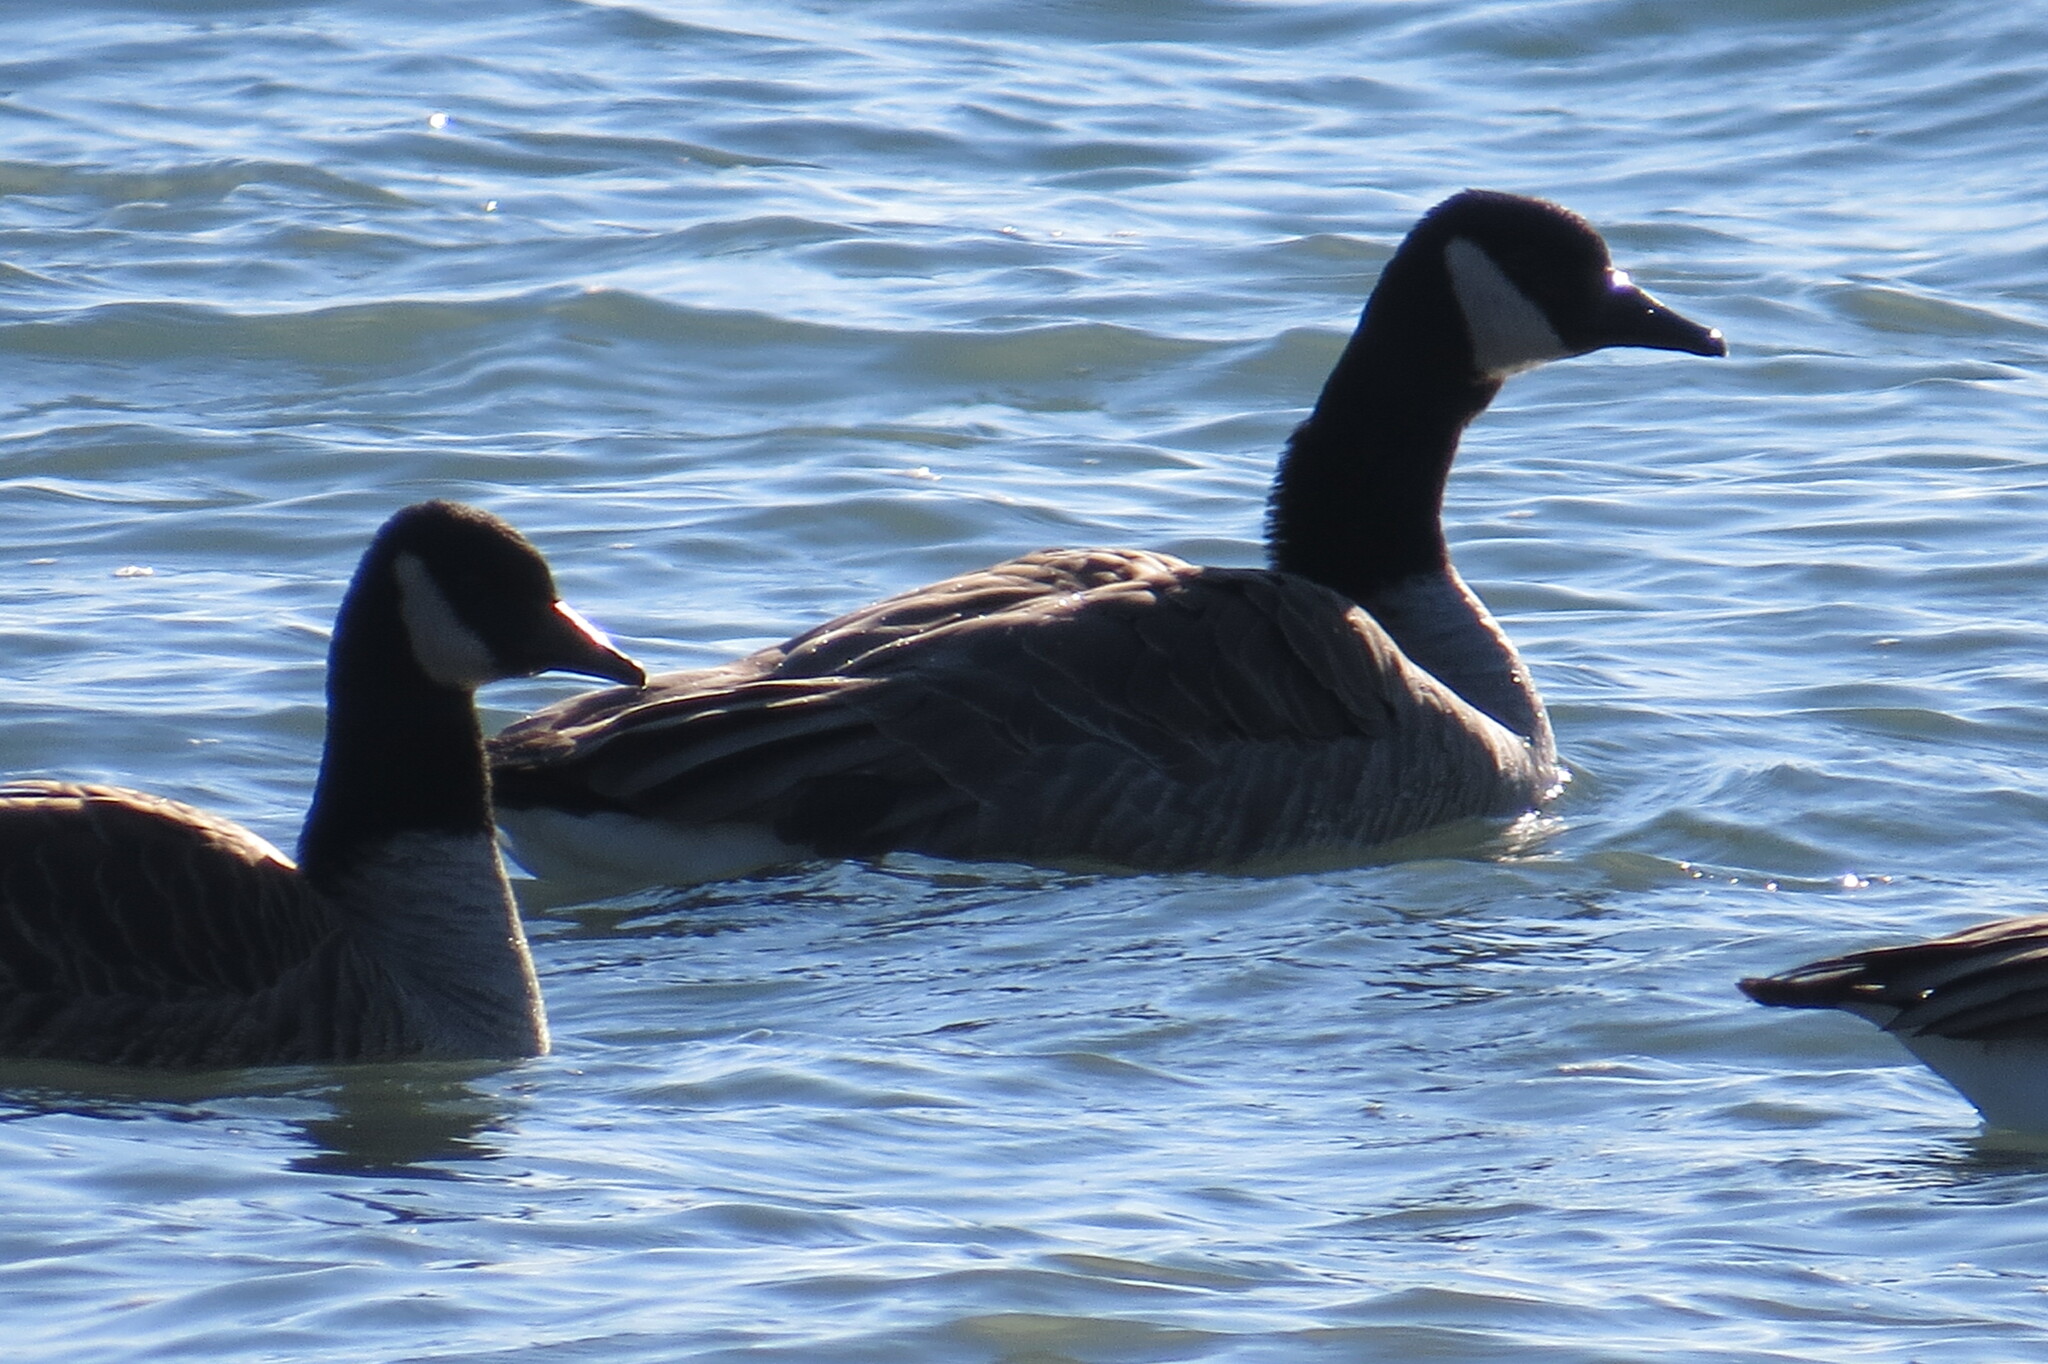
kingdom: Animalia
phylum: Chordata
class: Aves
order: Anseriformes
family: Anatidae
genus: Branta
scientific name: Branta canadensis
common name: Canada goose
